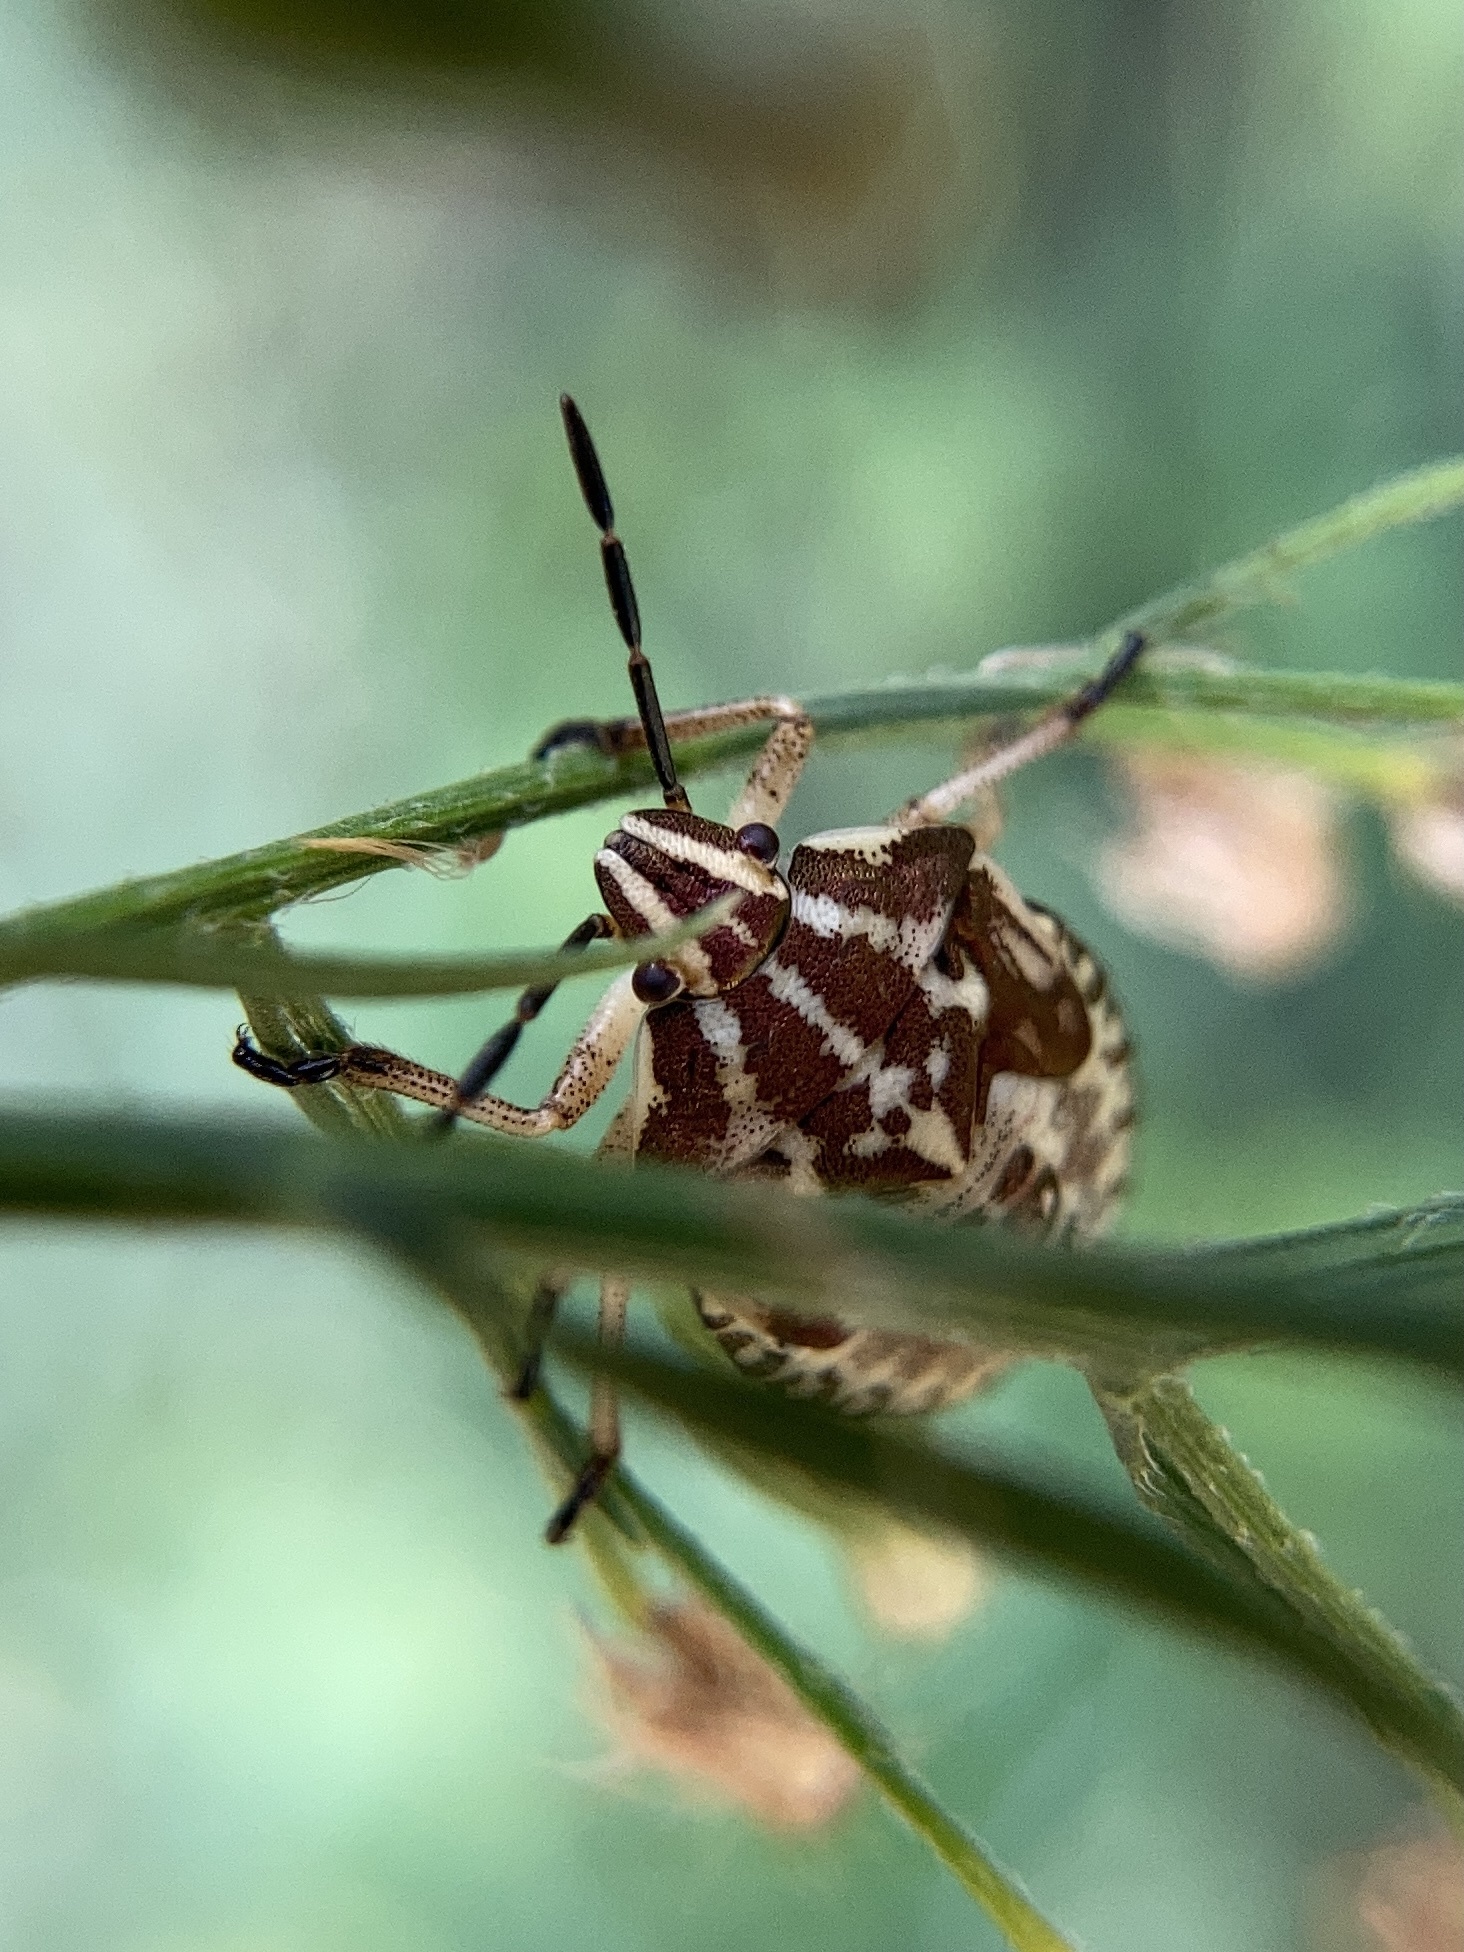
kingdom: Animalia
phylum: Arthropoda
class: Insecta
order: Hemiptera
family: Pentatomidae
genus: Carpocoris
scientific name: Carpocoris purpureipennis
